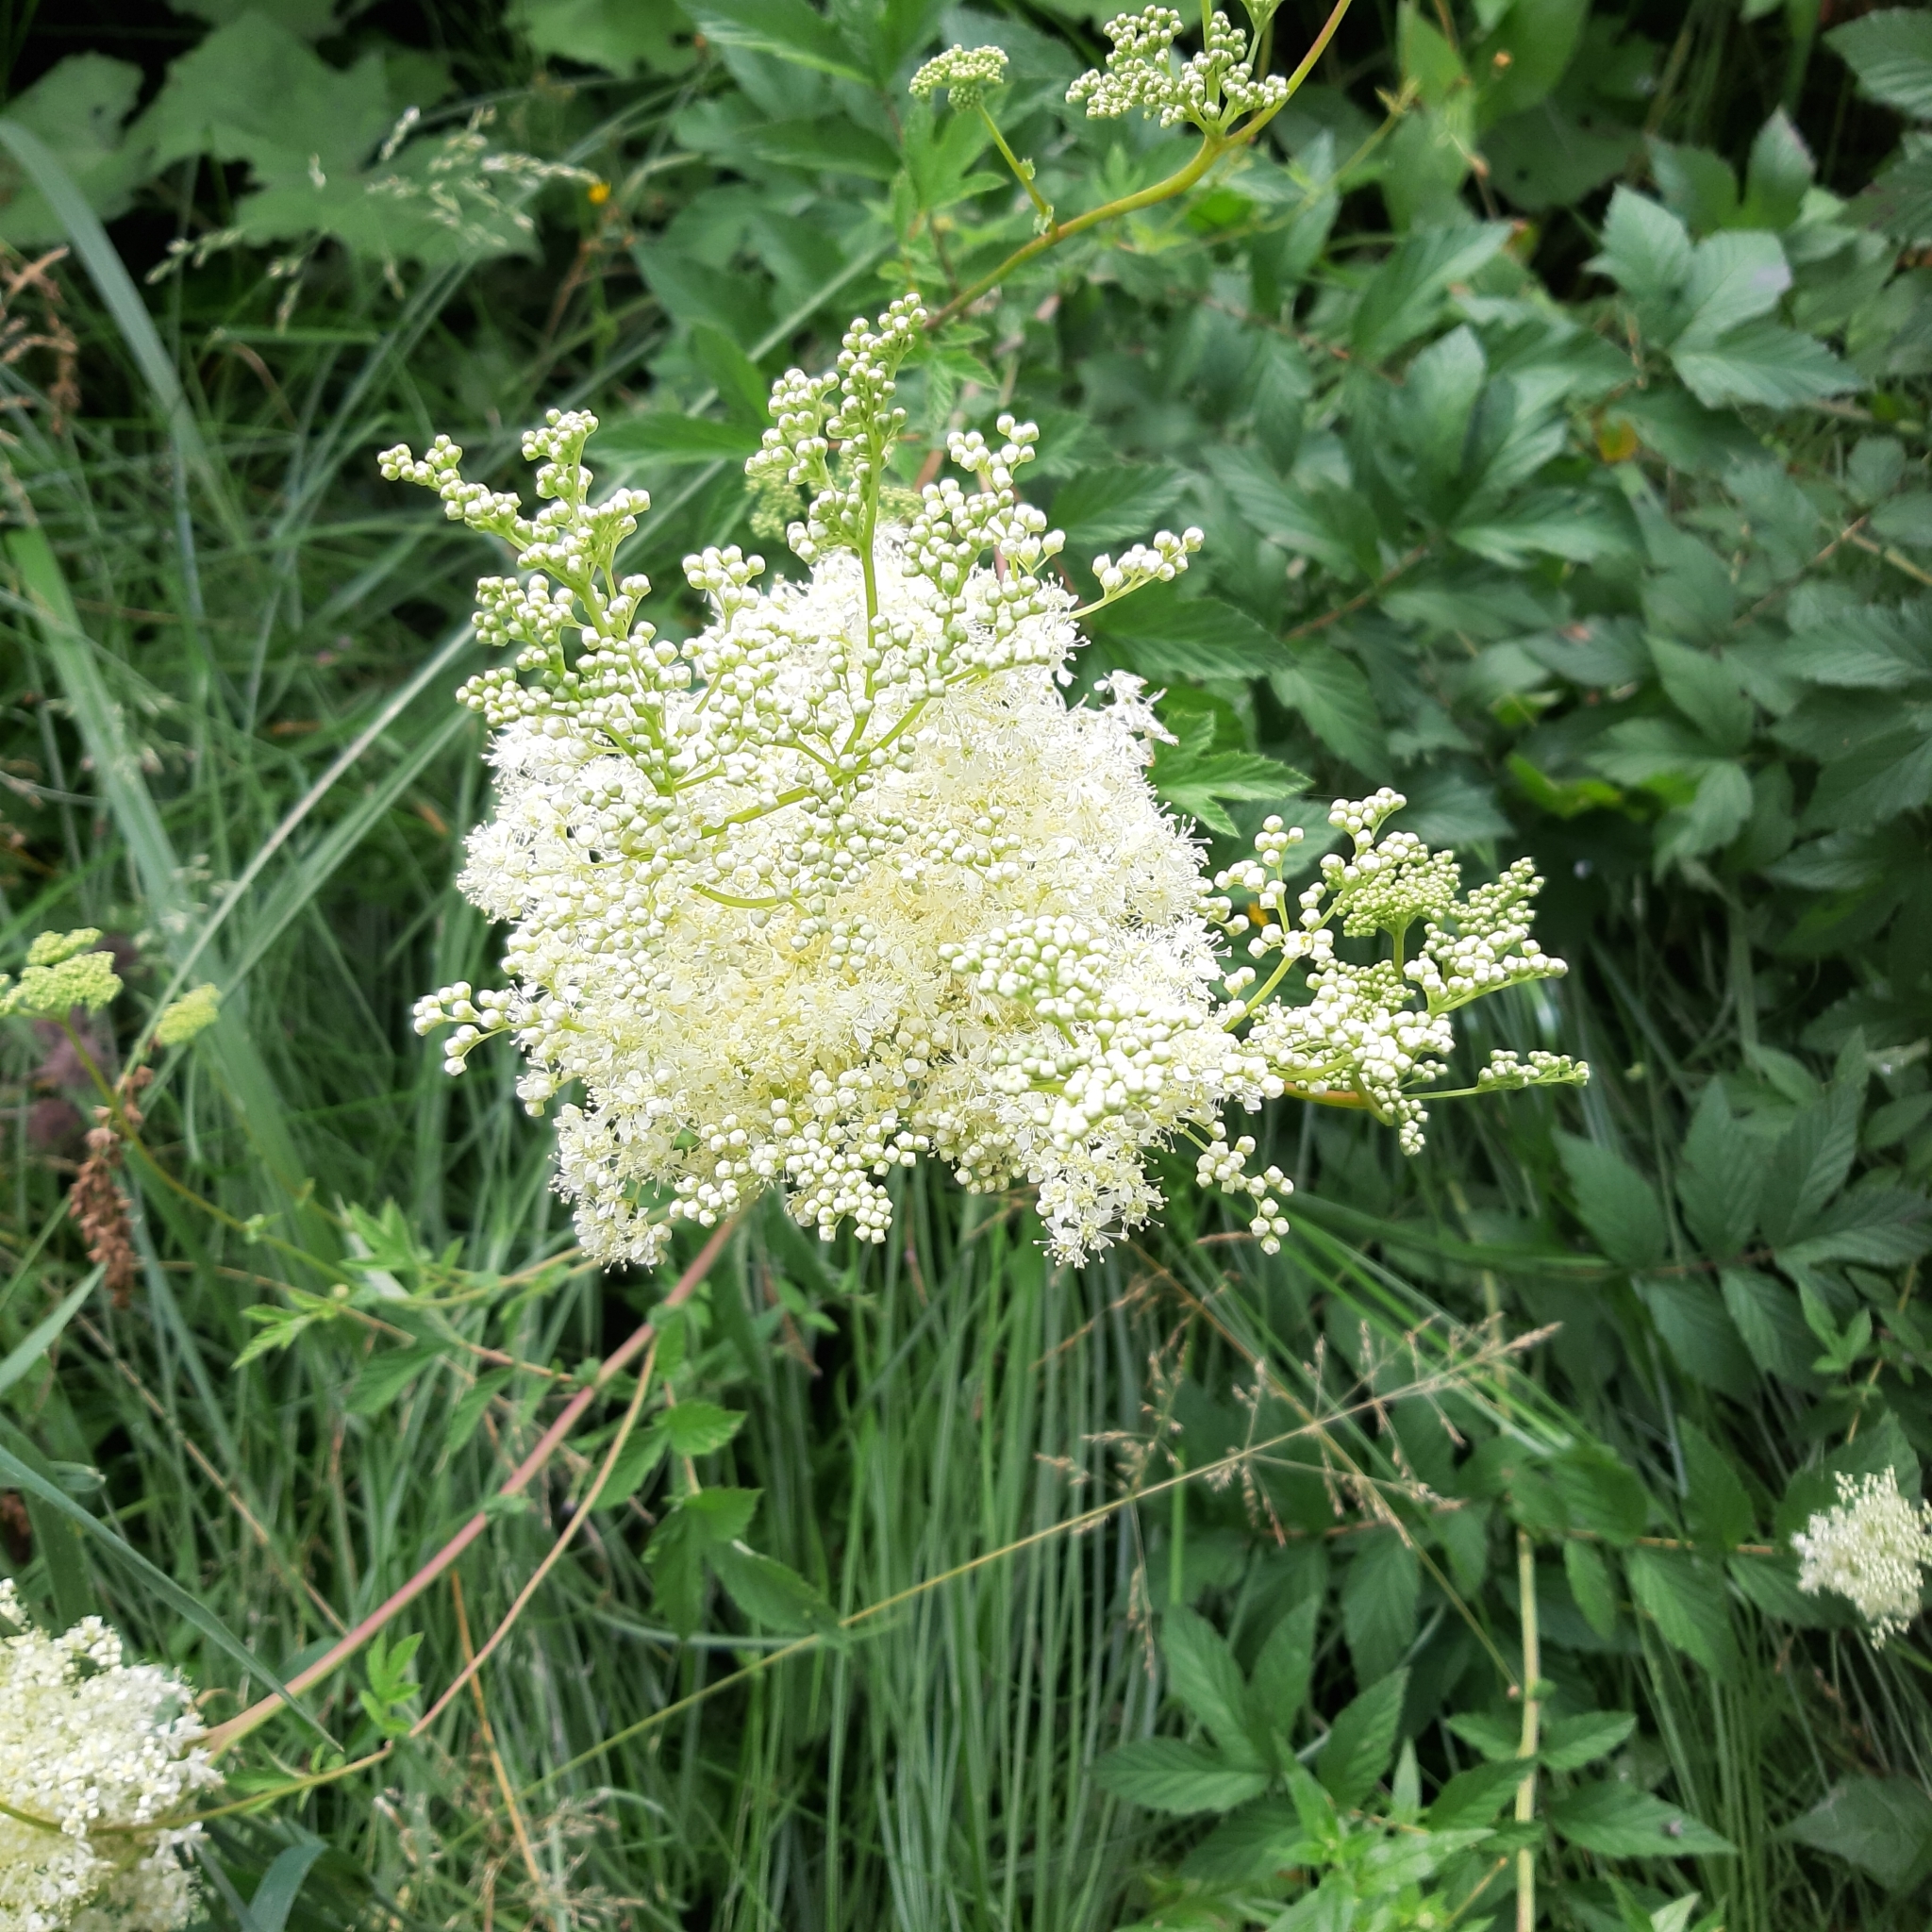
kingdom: Plantae
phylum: Tracheophyta
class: Magnoliopsida
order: Rosales
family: Rosaceae
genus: Filipendula
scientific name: Filipendula ulmaria
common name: Meadowsweet
